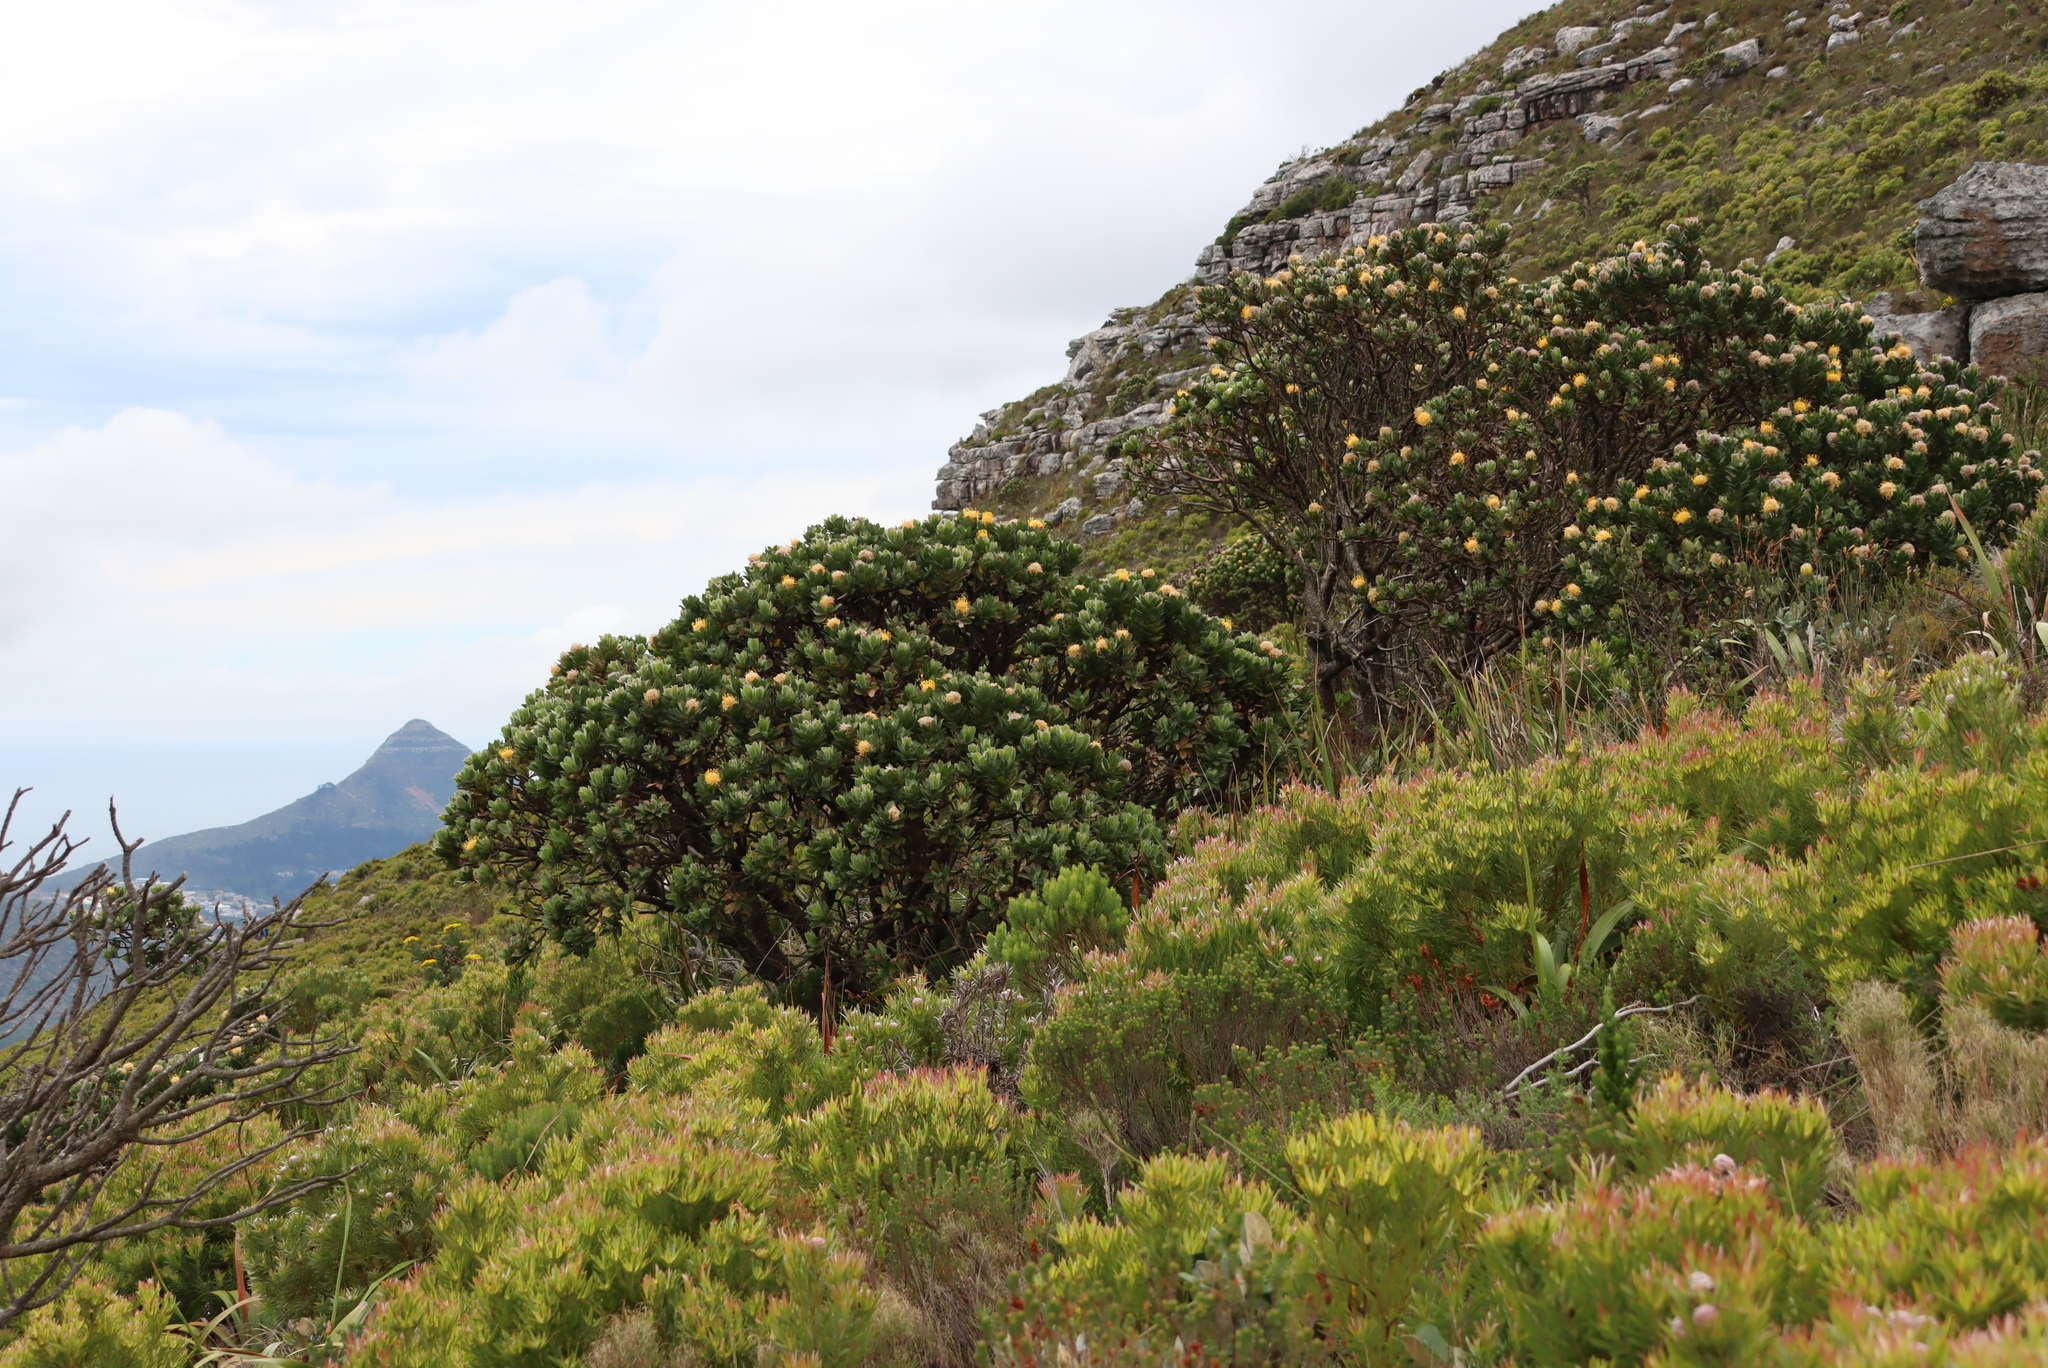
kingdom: Plantae
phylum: Tracheophyta
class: Magnoliopsida
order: Proteales
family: Proteaceae
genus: Leucospermum
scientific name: Leucospermum conocarpodendron
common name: Tree pincushion
